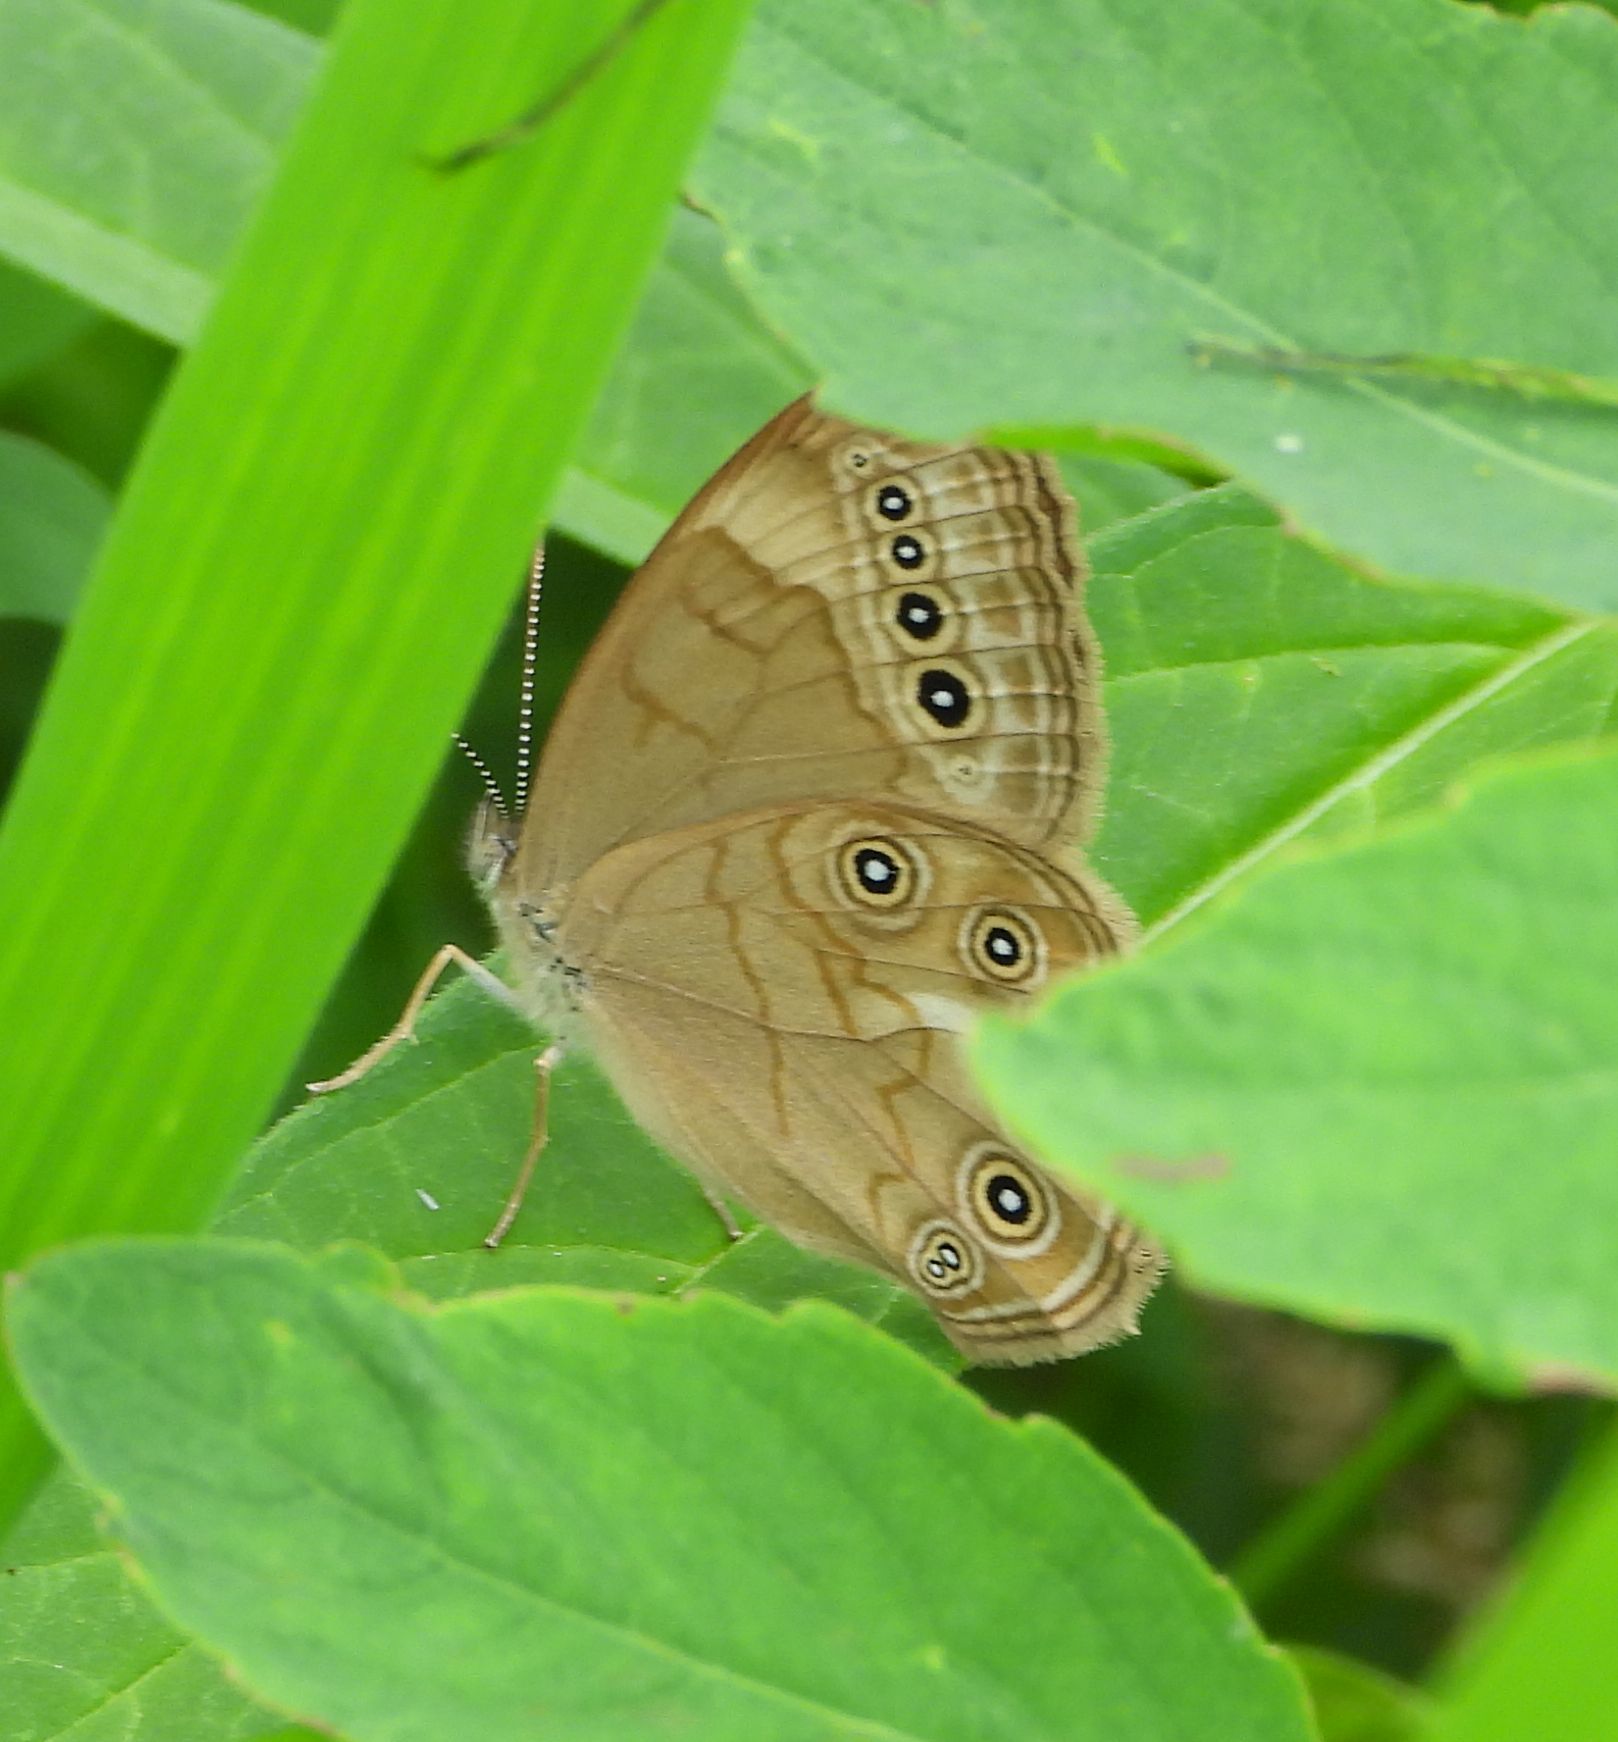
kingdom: Animalia
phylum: Arthropoda
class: Insecta
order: Lepidoptera
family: Nymphalidae
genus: Lethe
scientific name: Lethe eurydice
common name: Eyed brown
